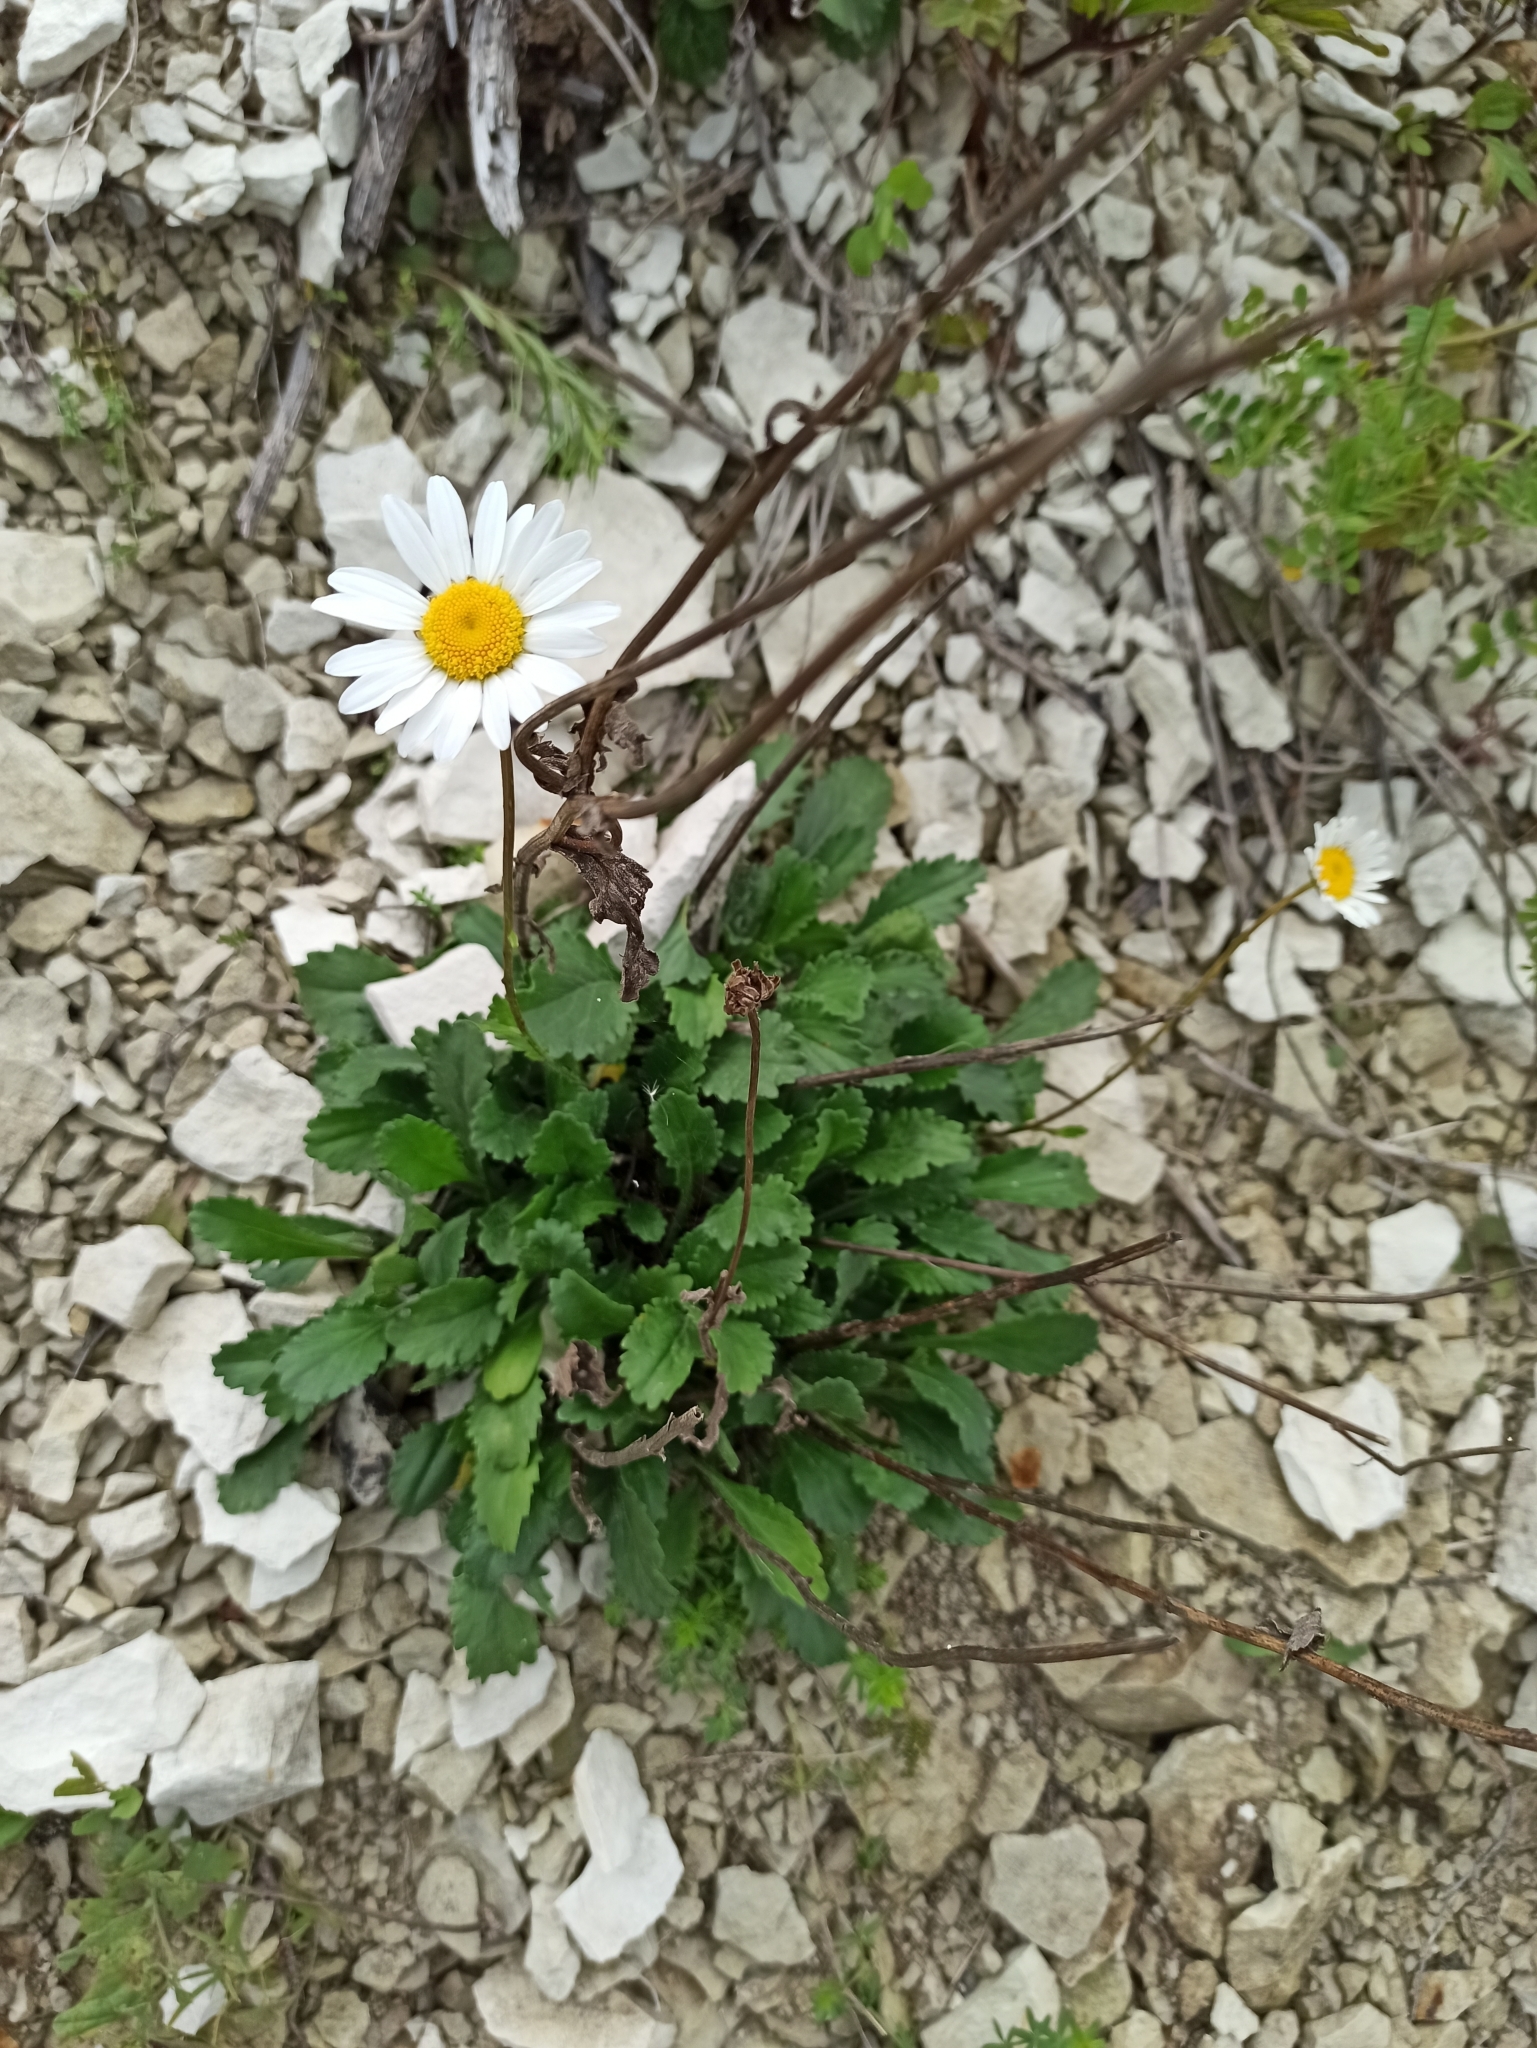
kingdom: Plantae
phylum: Tracheophyta
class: Magnoliopsida
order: Asterales
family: Asteraceae
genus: Leucanthemum
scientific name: Leucanthemum vulgare
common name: Oxeye daisy
